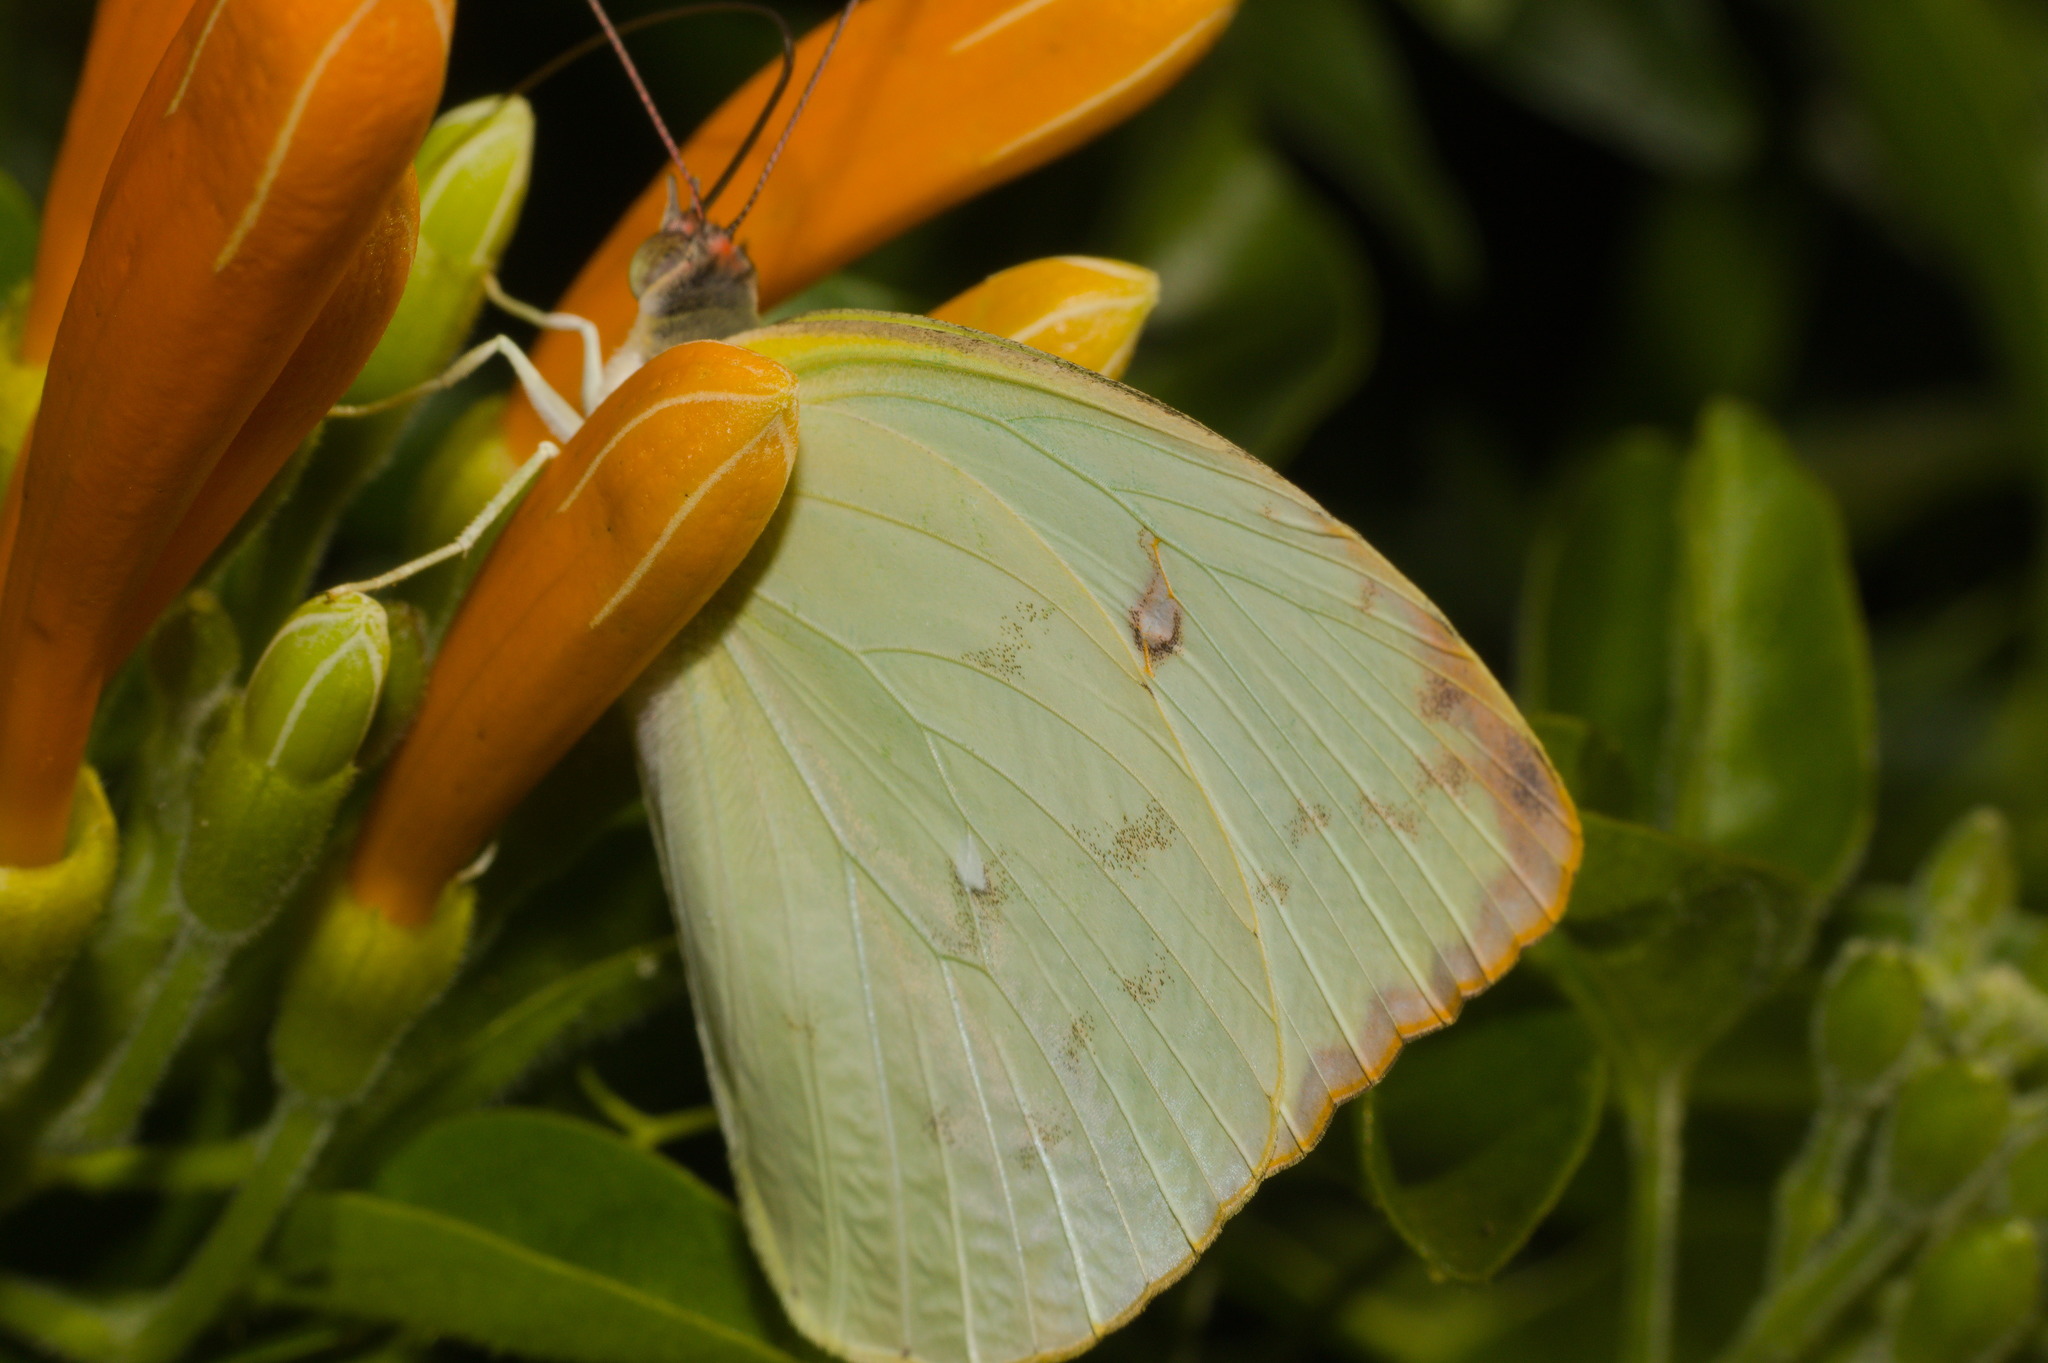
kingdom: Animalia
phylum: Arthropoda
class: Insecta
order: Lepidoptera
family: Pieridae
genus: Aphrissa
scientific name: Aphrissa statira
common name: Statira sulphur
